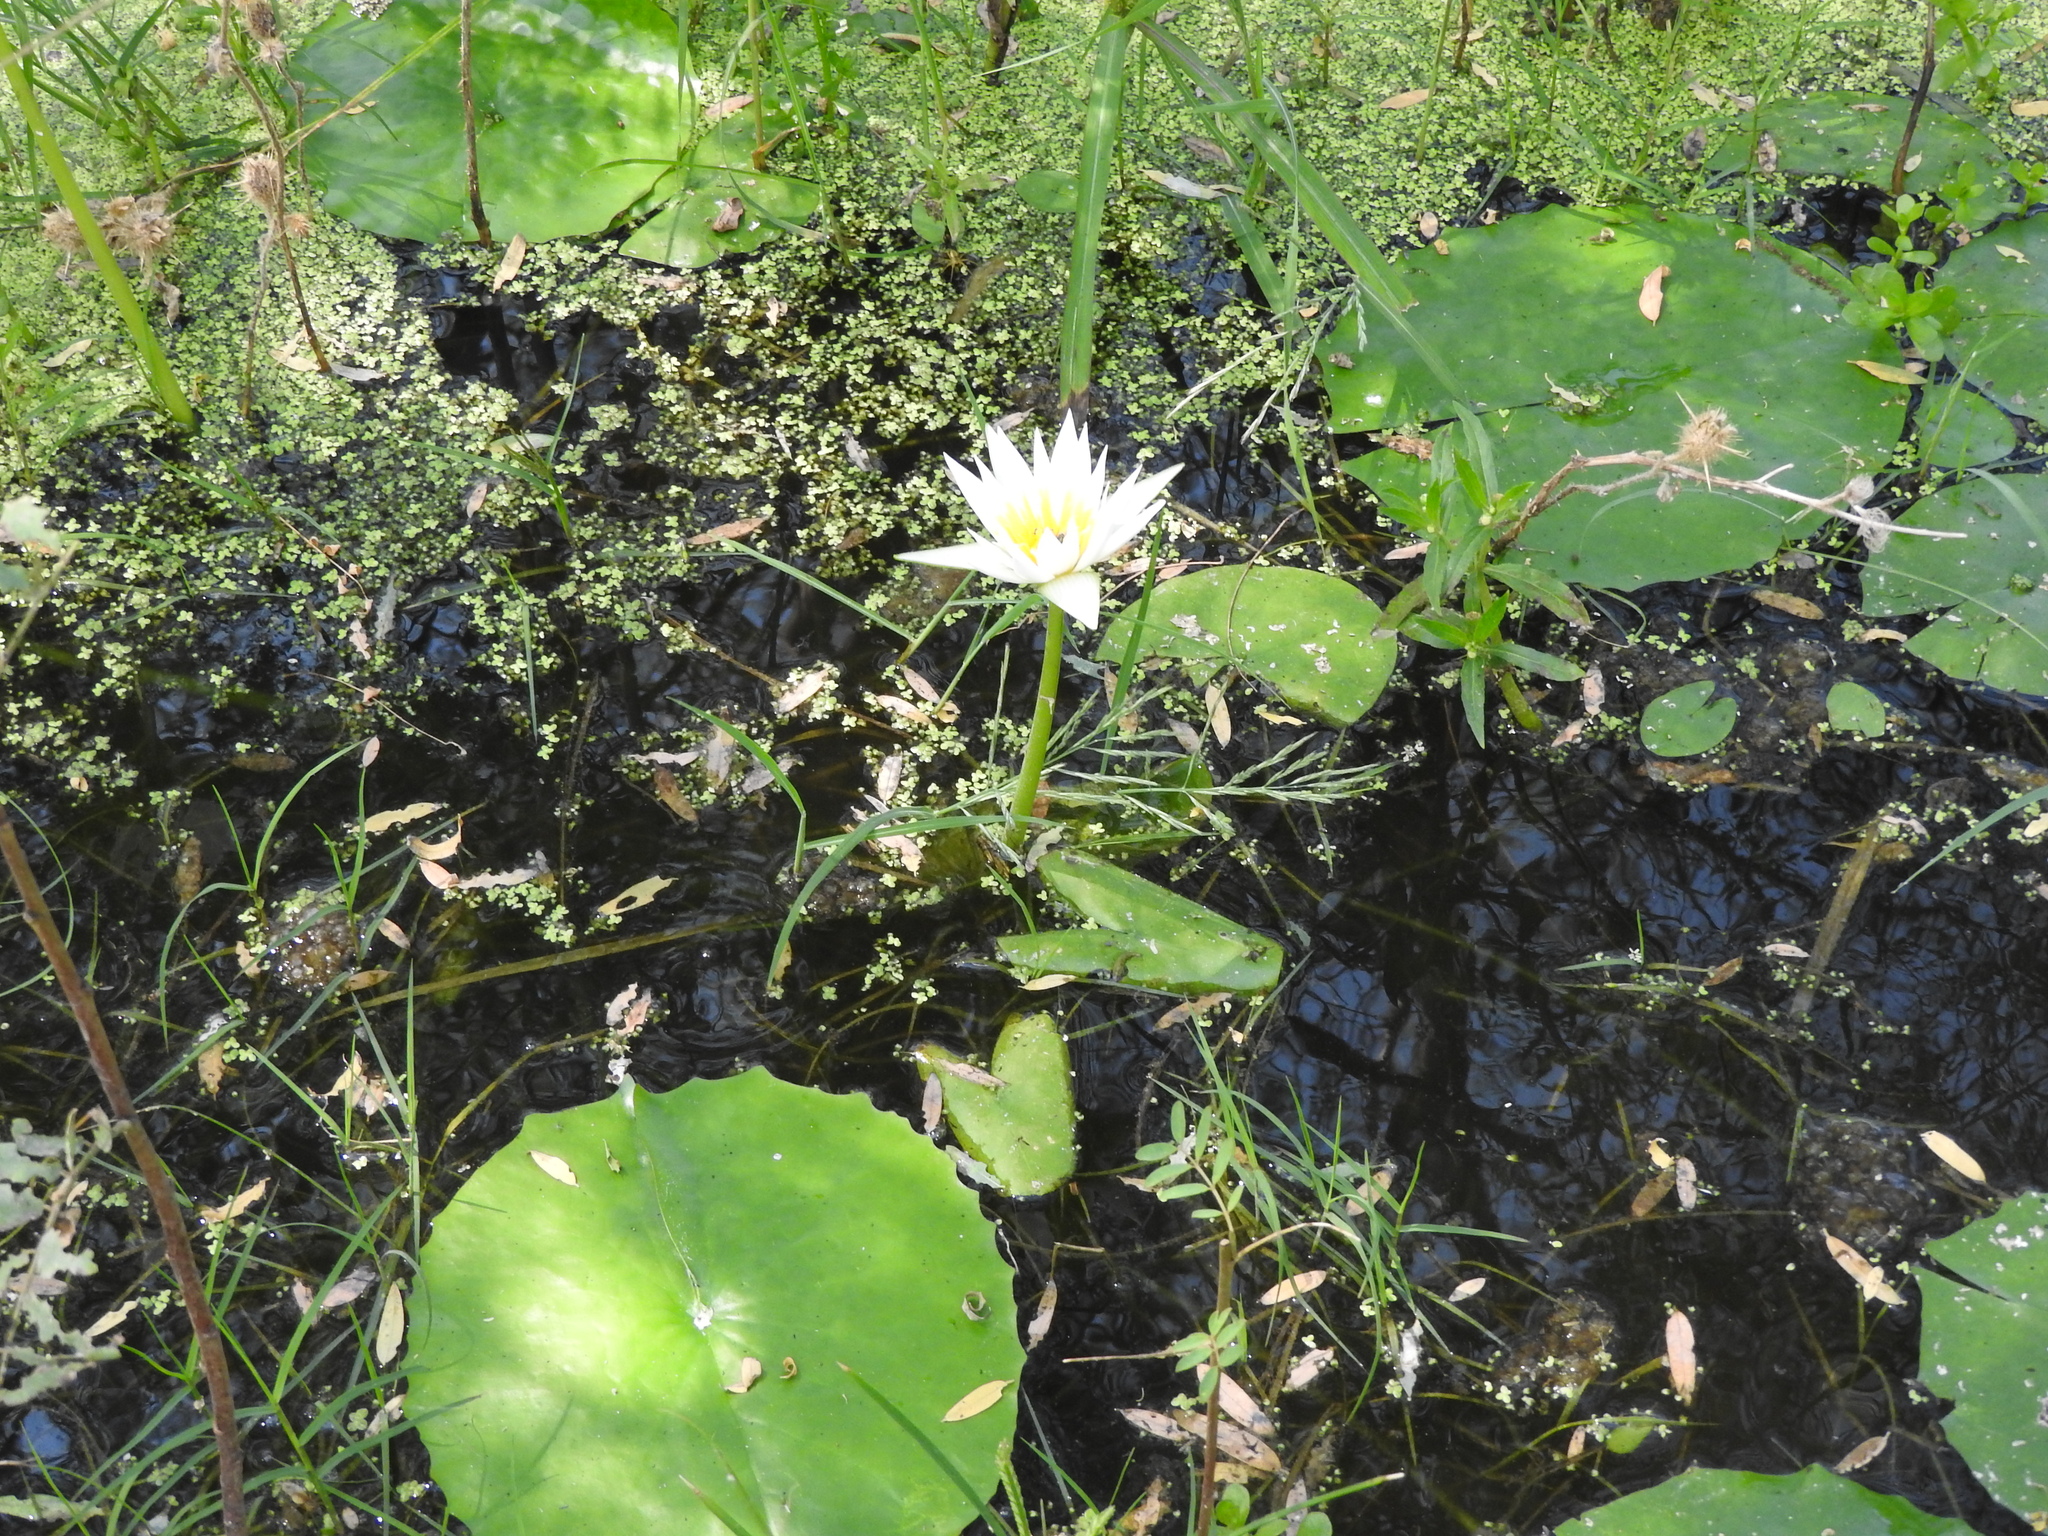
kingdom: Plantae
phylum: Tracheophyta
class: Magnoliopsida
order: Nymphaeales
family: Nymphaeaceae
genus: Nymphaea
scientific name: Nymphaea gracilis
